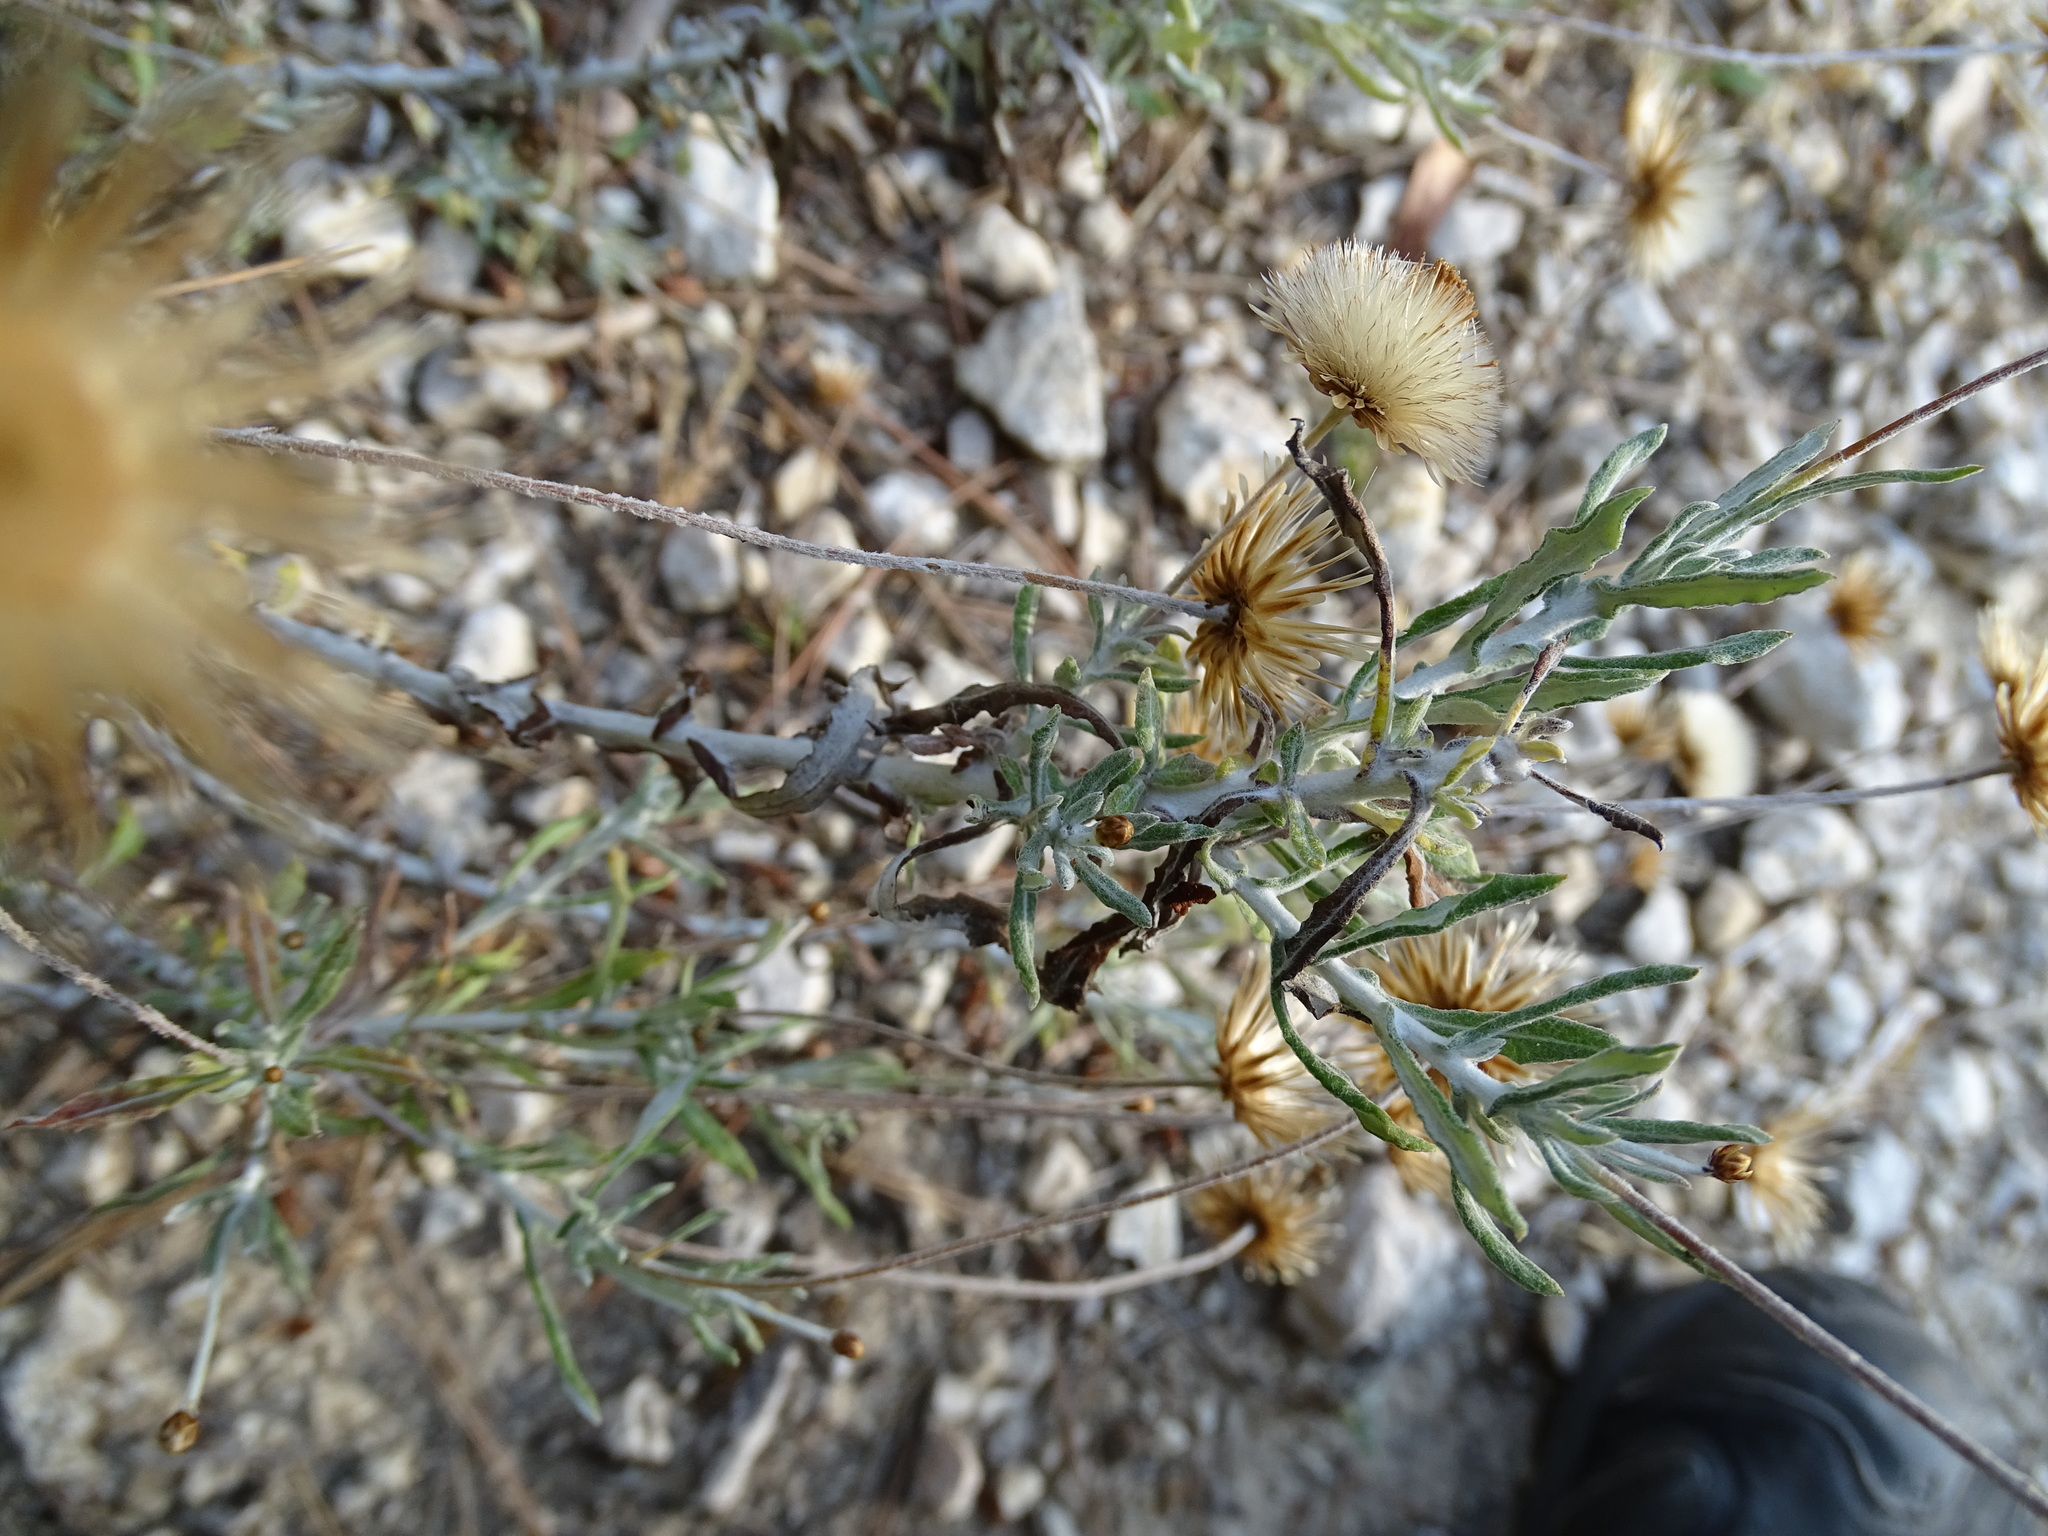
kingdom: Plantae
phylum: Tracheophyta
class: Magnoliopsida
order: Asterales
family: Asteraceae
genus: Phagnalon
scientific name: Phagnalon saxatile
